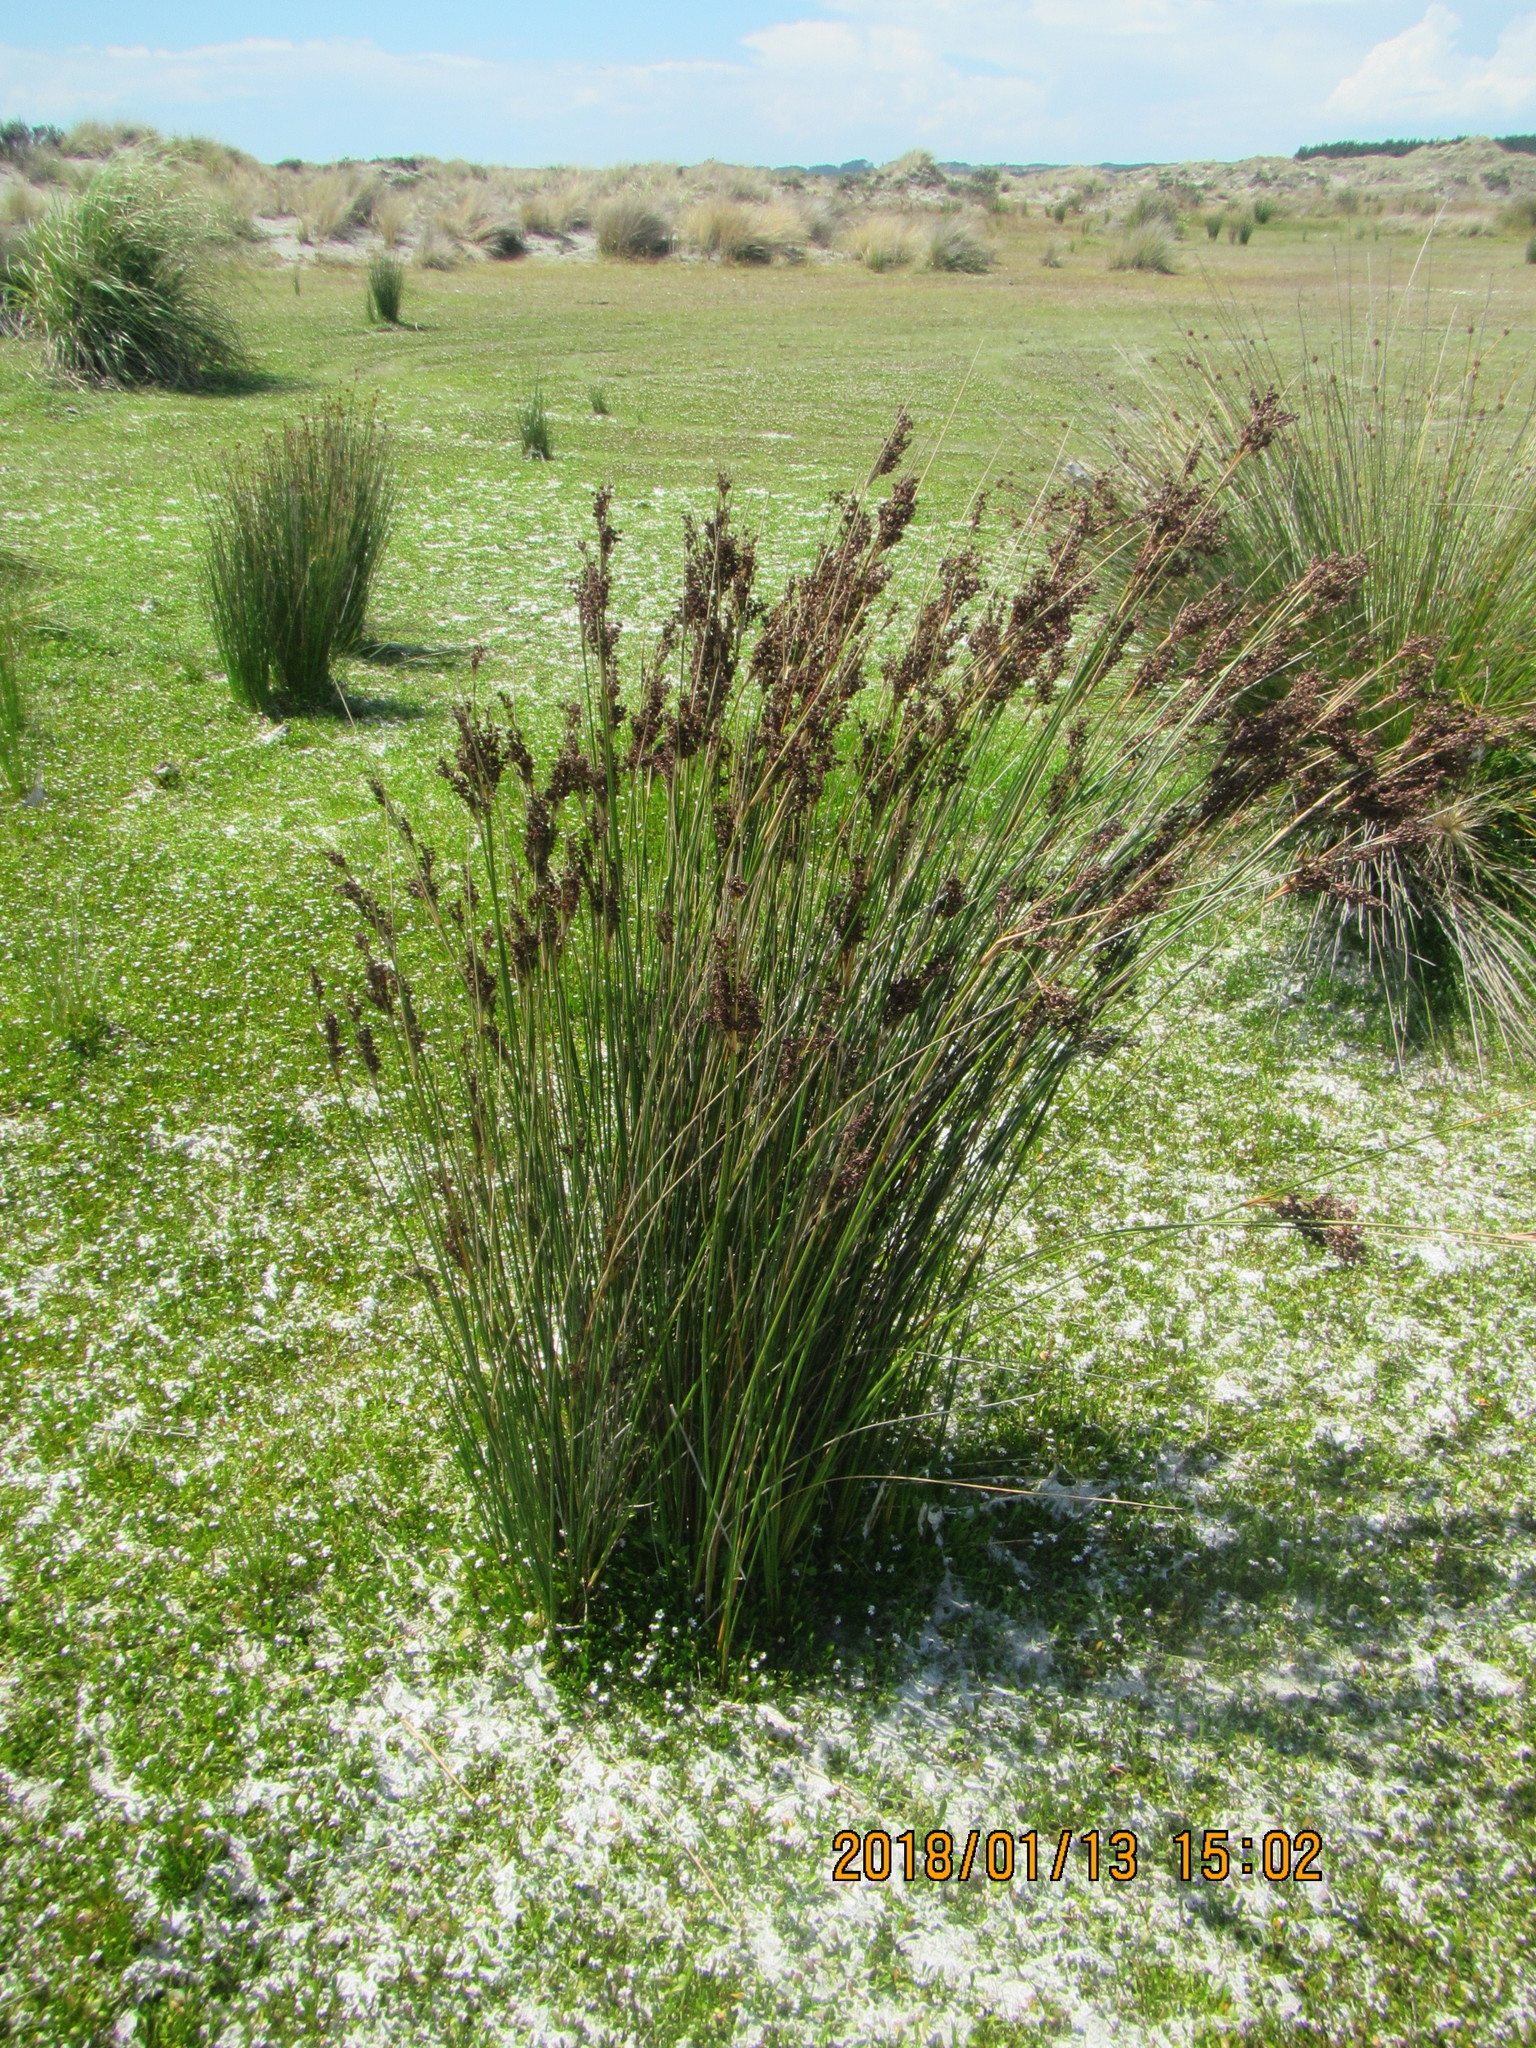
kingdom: Plantae
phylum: Tracheophyta
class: Liliopsida
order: Poales
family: Juncaceae
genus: Juncus
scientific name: Juncus kraussii
